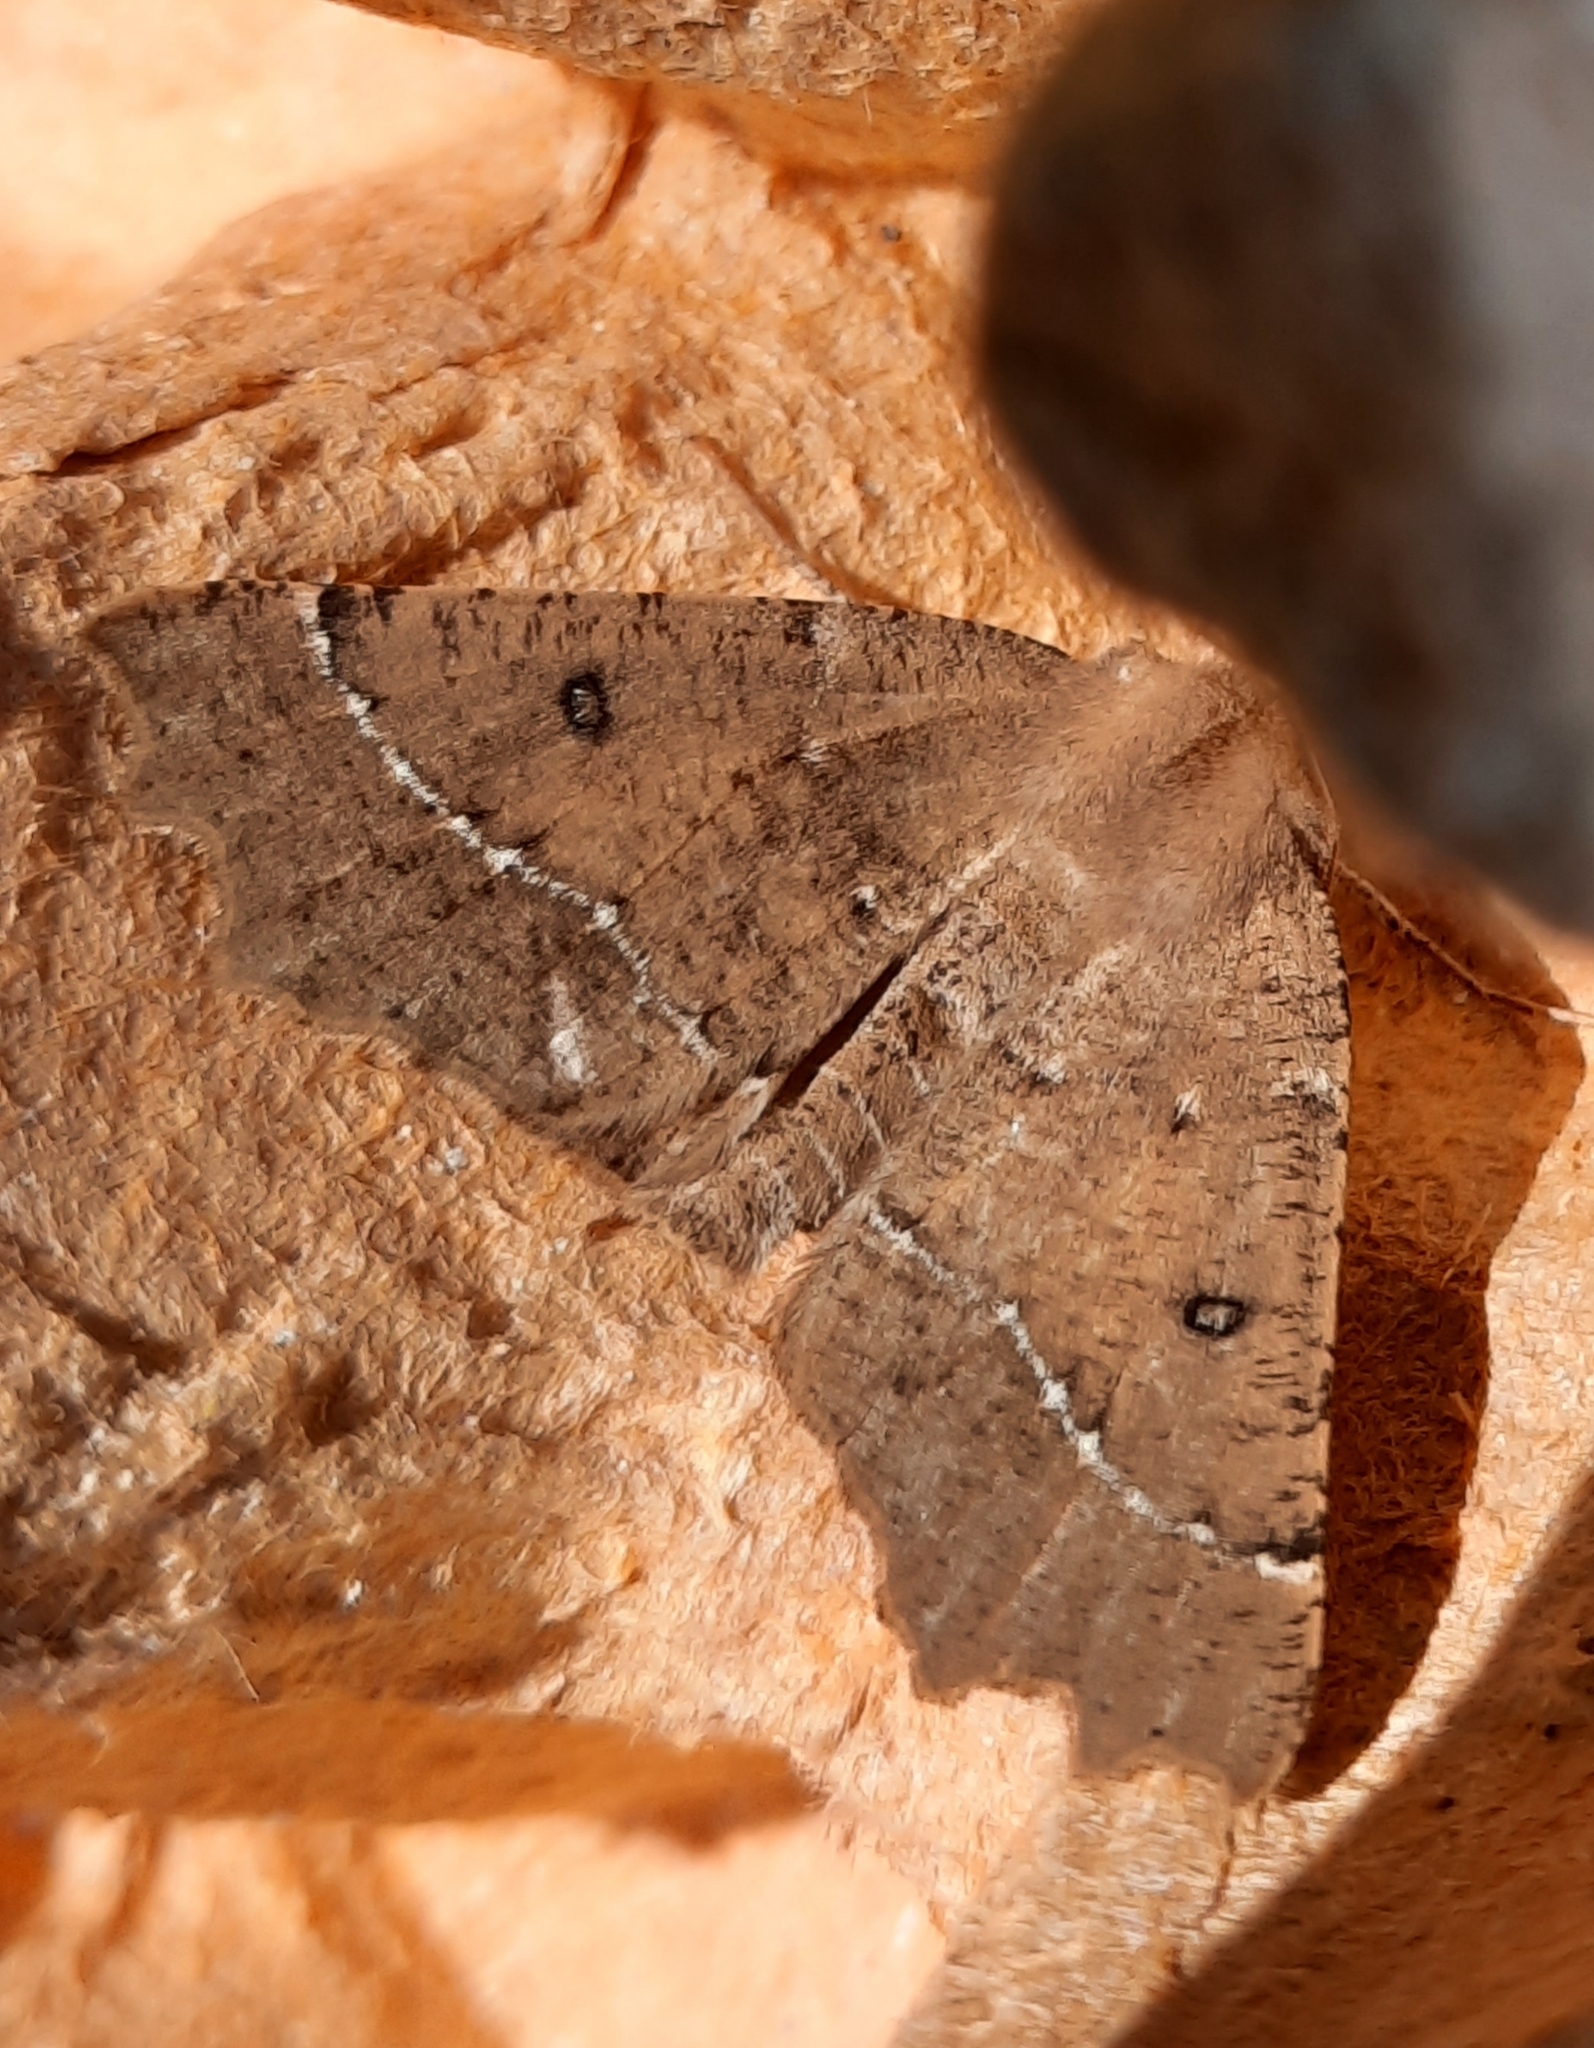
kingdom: Animalia
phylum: Arthropoda
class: Insecta
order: Lepidoptera
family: Geometridae
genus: Odontopera
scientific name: Odontopera bidentata
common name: Scalloped hazel
